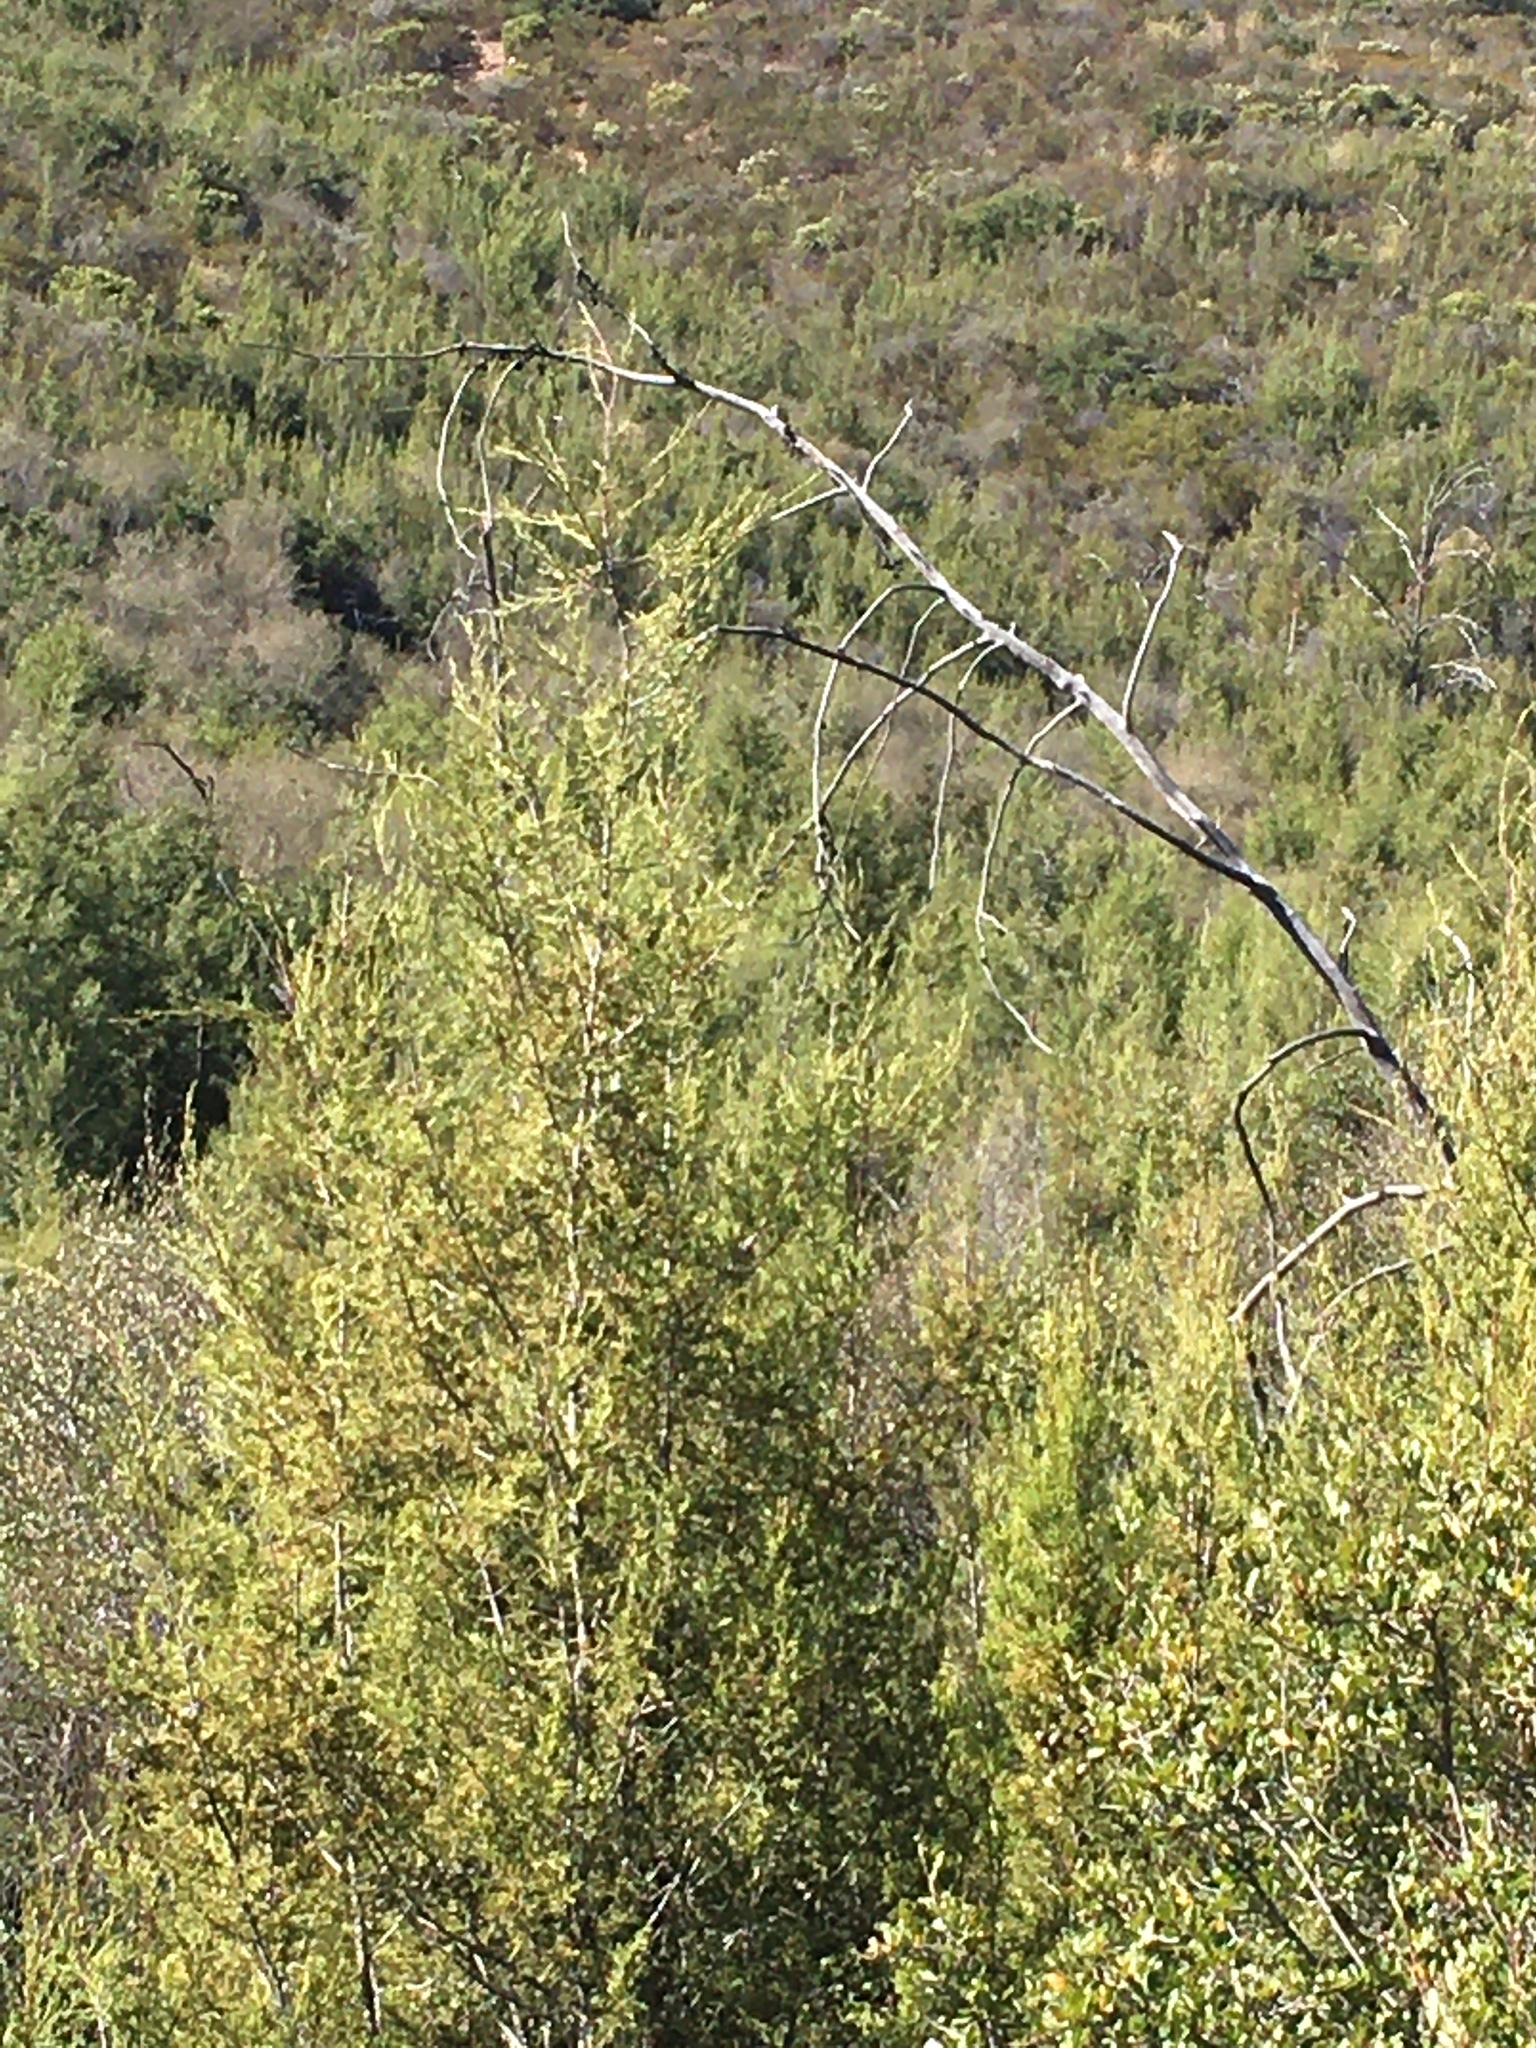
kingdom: Plantae
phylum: Tracheophyta
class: Pinopsida
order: Pinales
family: Cupressaceae
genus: Cupressus
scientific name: Cupressus guadalupensis
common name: Forbes cypress
